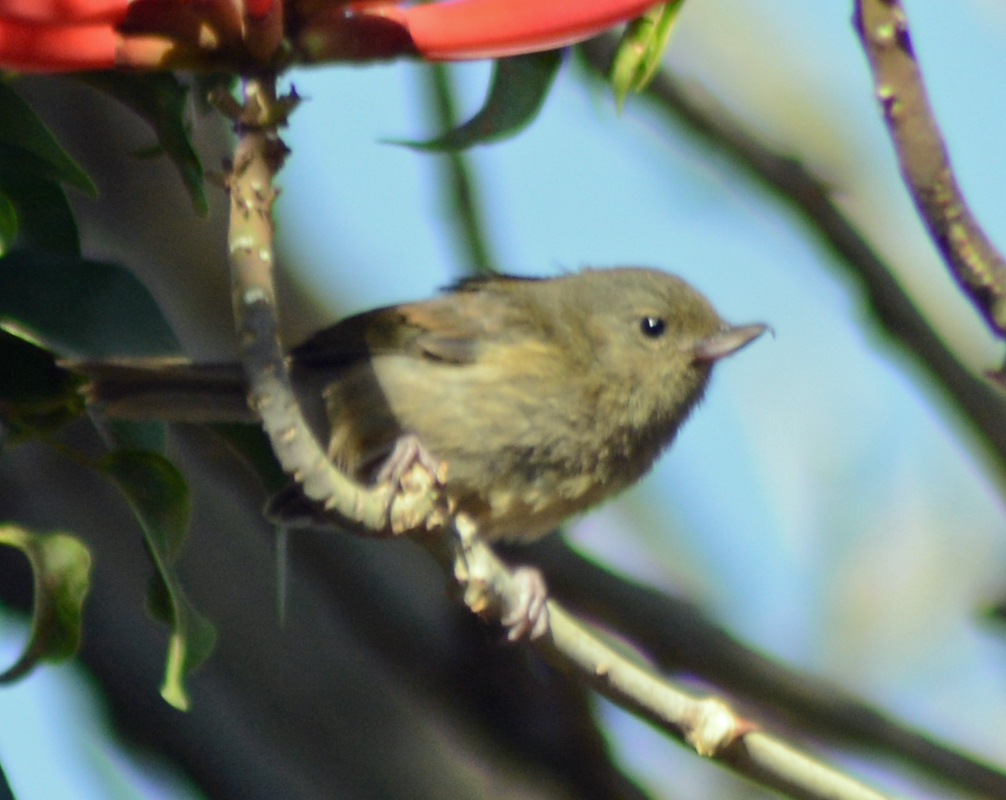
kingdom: Animalia
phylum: Chordata
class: Aves
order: Passeriformes
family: Thraupidae
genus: Diglossa
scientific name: Diglossa baritula
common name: Cinnamon-bellied flowerpiercer
